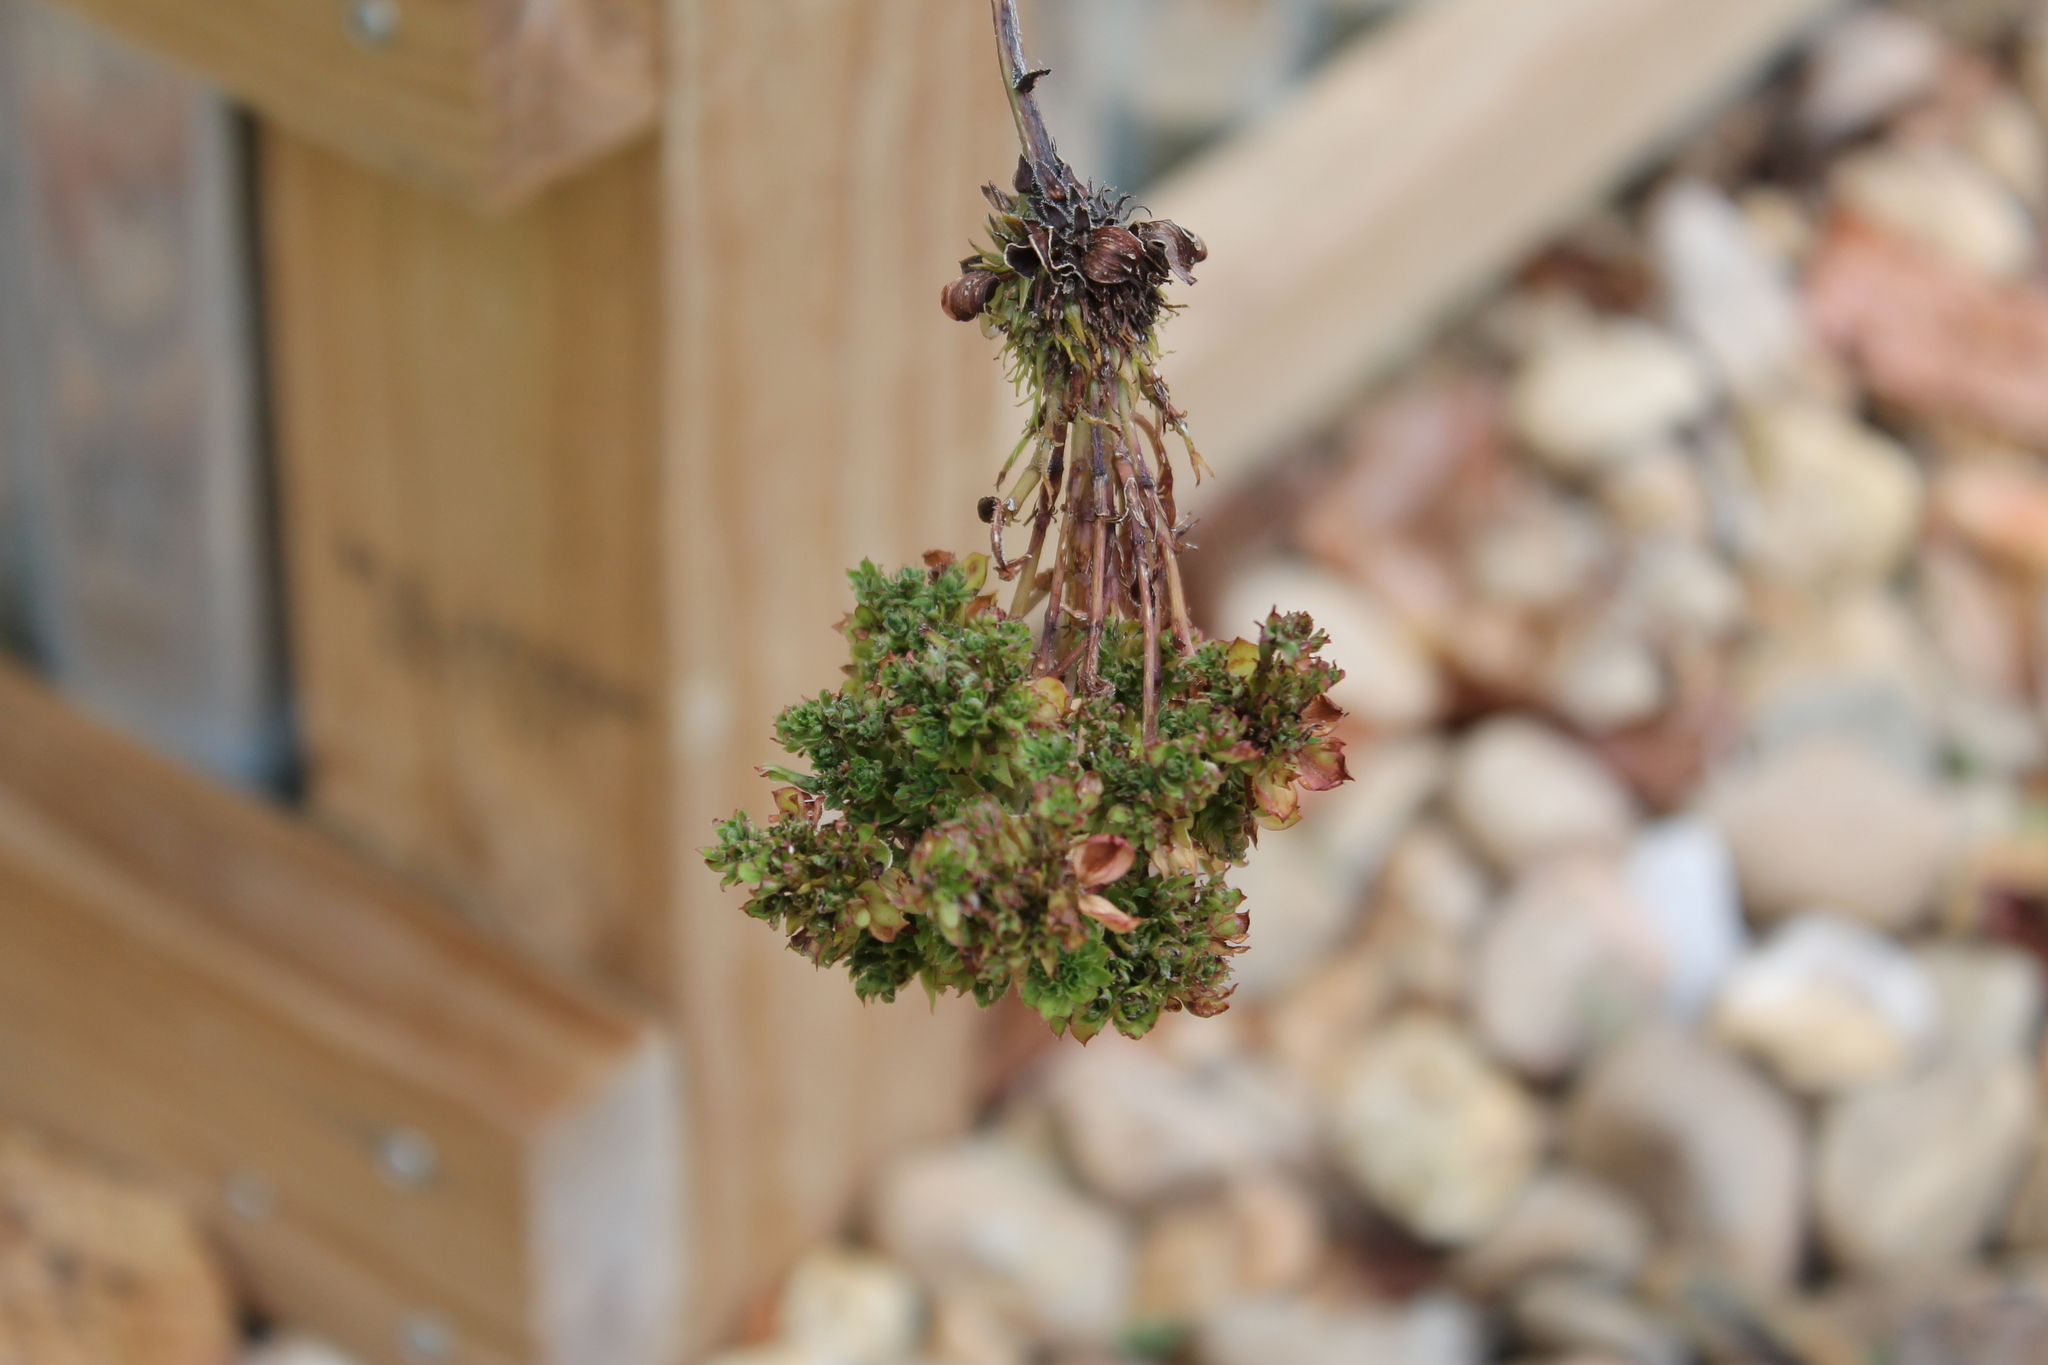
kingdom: Bacteria
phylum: Firmicutes
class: Bacilli
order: Acholeplasmatales
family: Acholeplasmataceae
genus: Phytoplasma
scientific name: Phytoplasma
